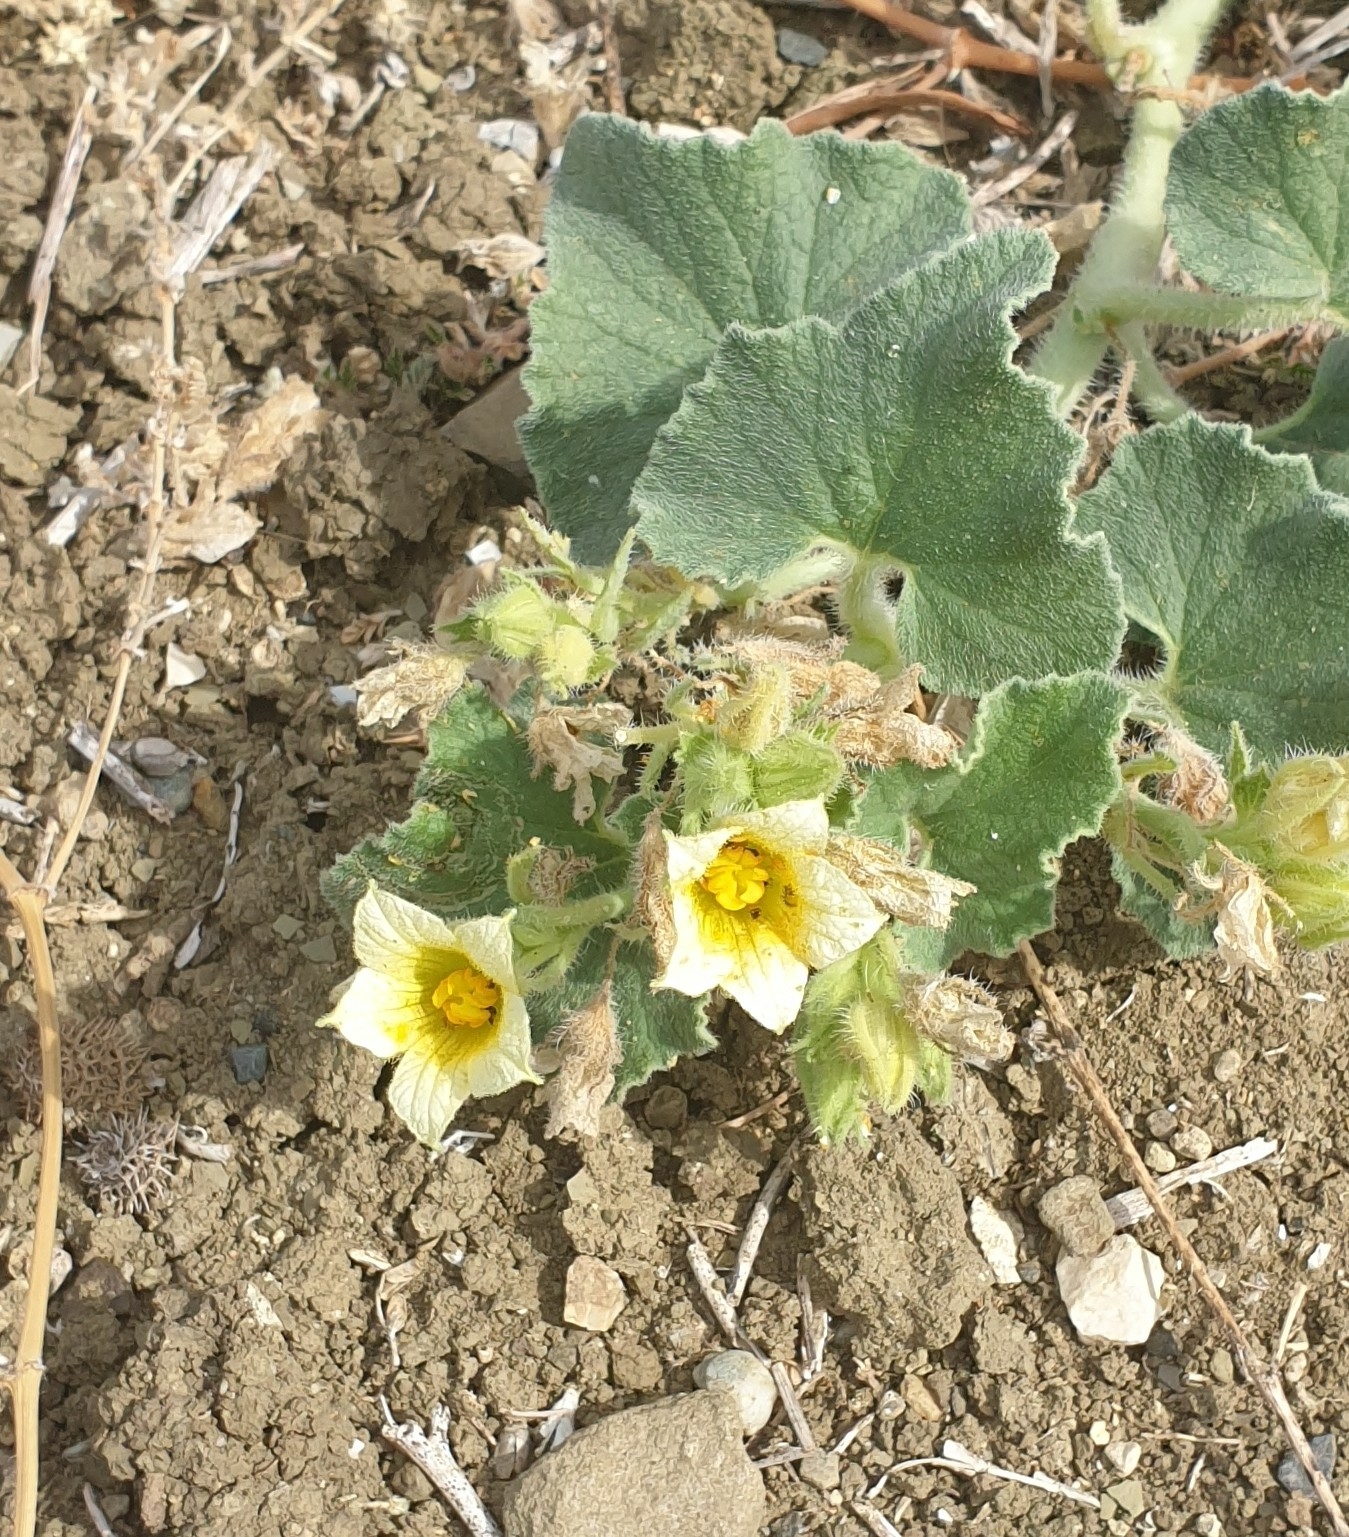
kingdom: Plantae
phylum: Tracheophyta
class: Magnoliopsida
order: Cucurbitales
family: Cucurbitaceae
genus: Ecballium
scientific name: Ecballium elaterium
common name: Squirting cucumber
